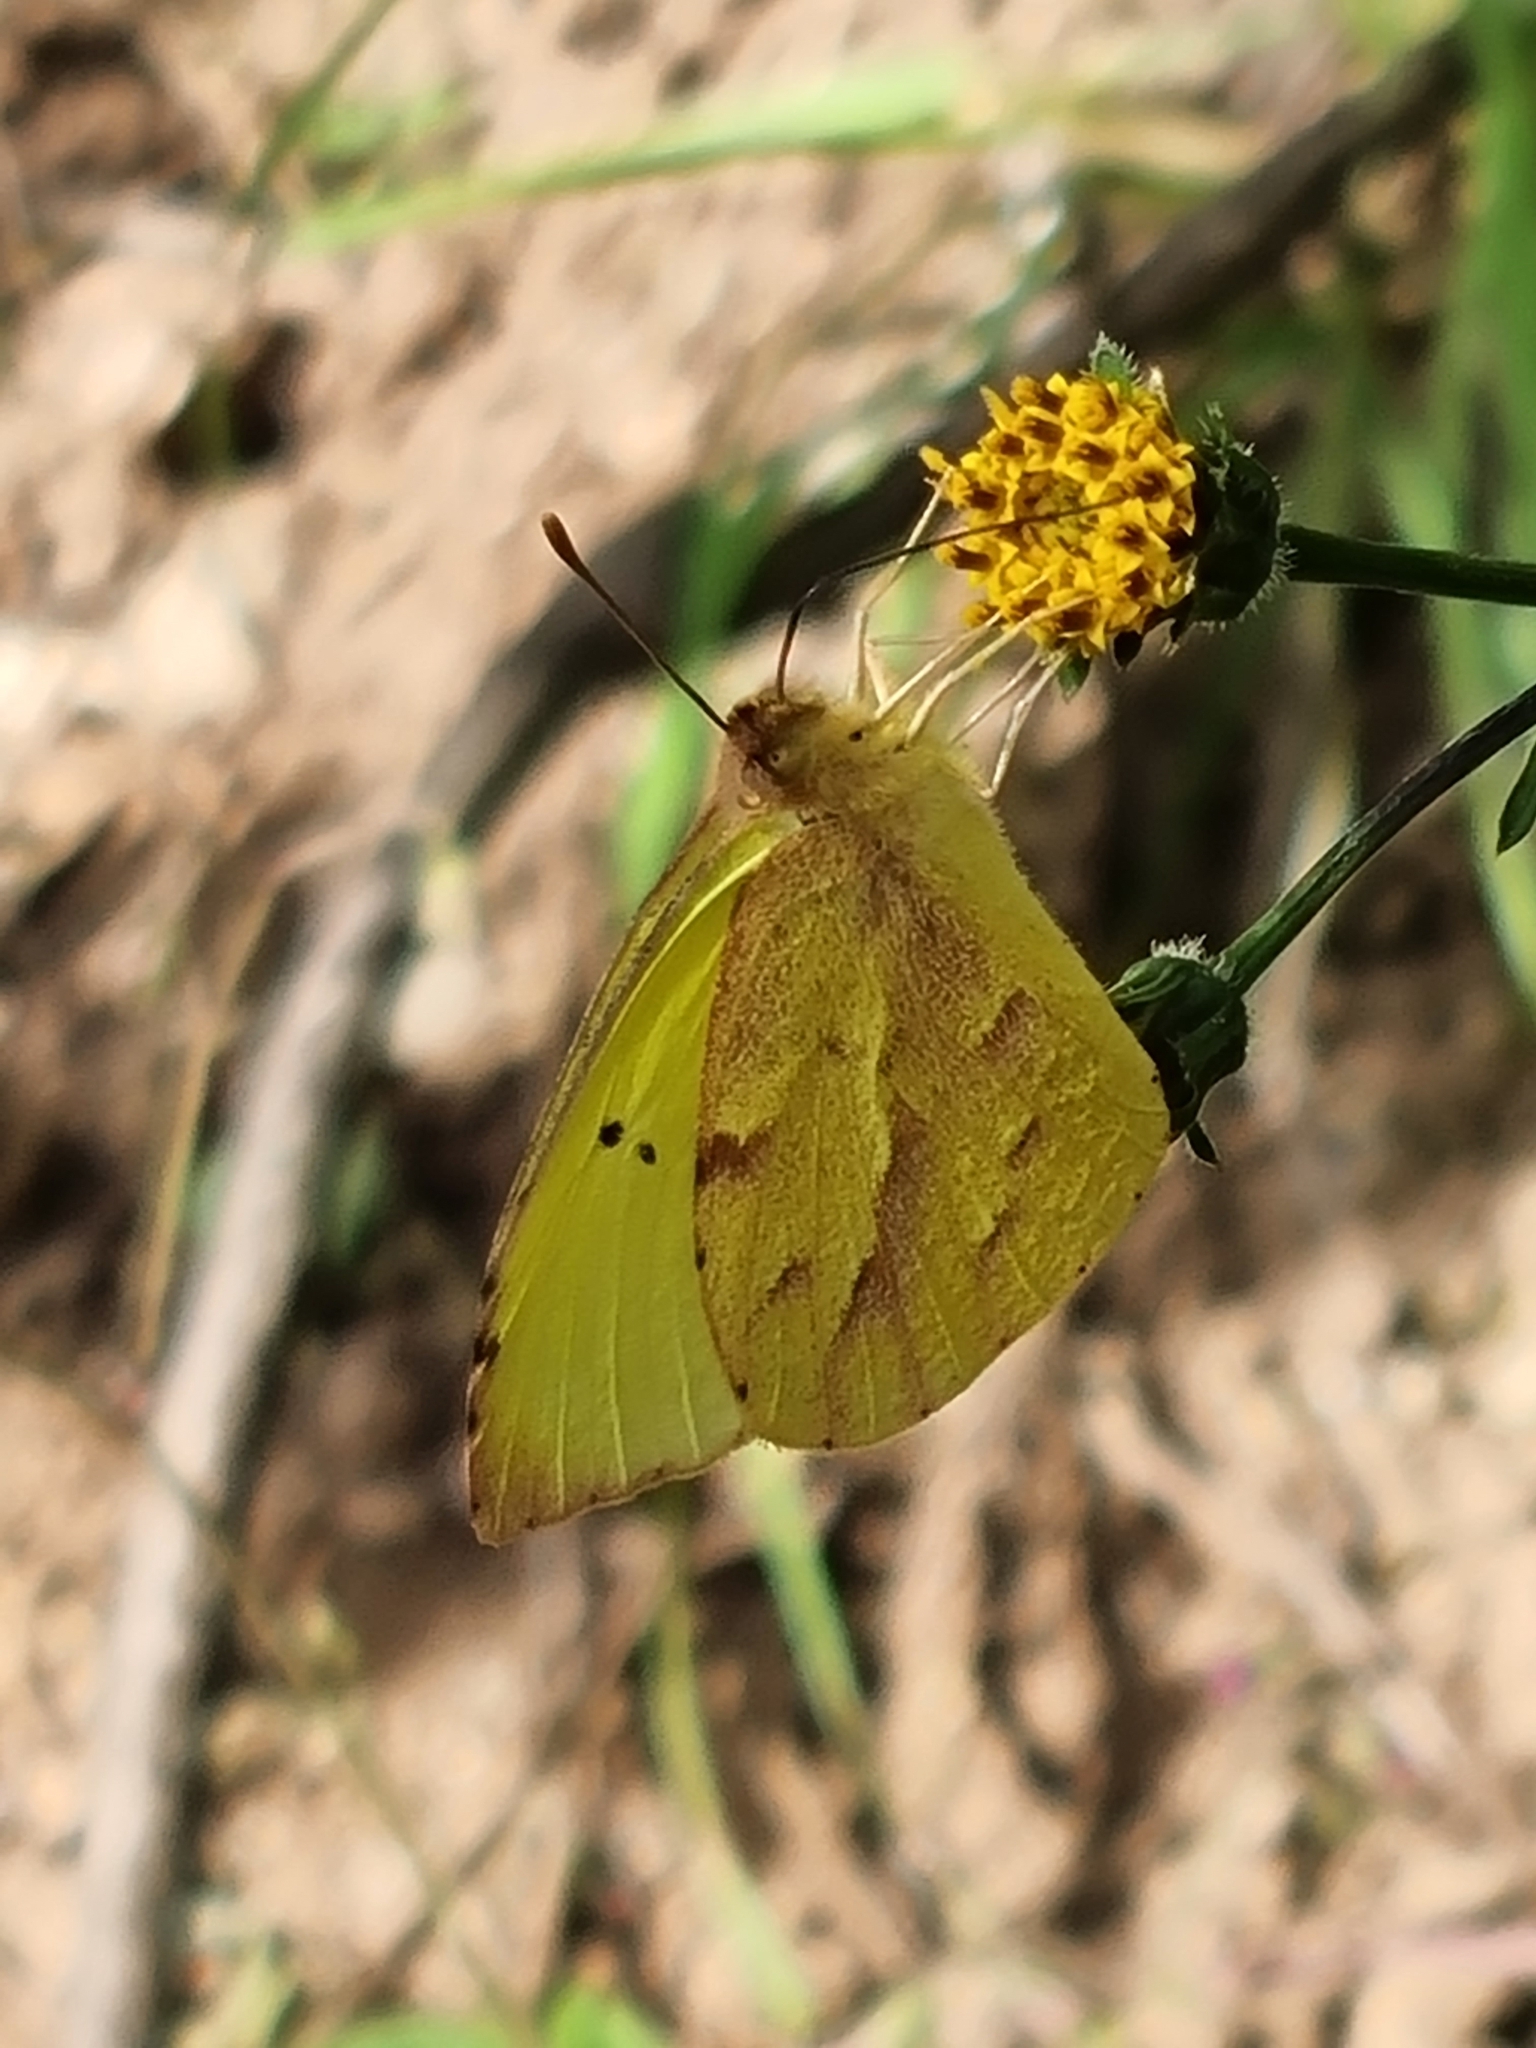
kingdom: Animalia
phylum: Arthropoda
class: Insecta
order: Lepidoptera
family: Pieridae
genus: Teriocolias
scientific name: Teriocolias zelia
